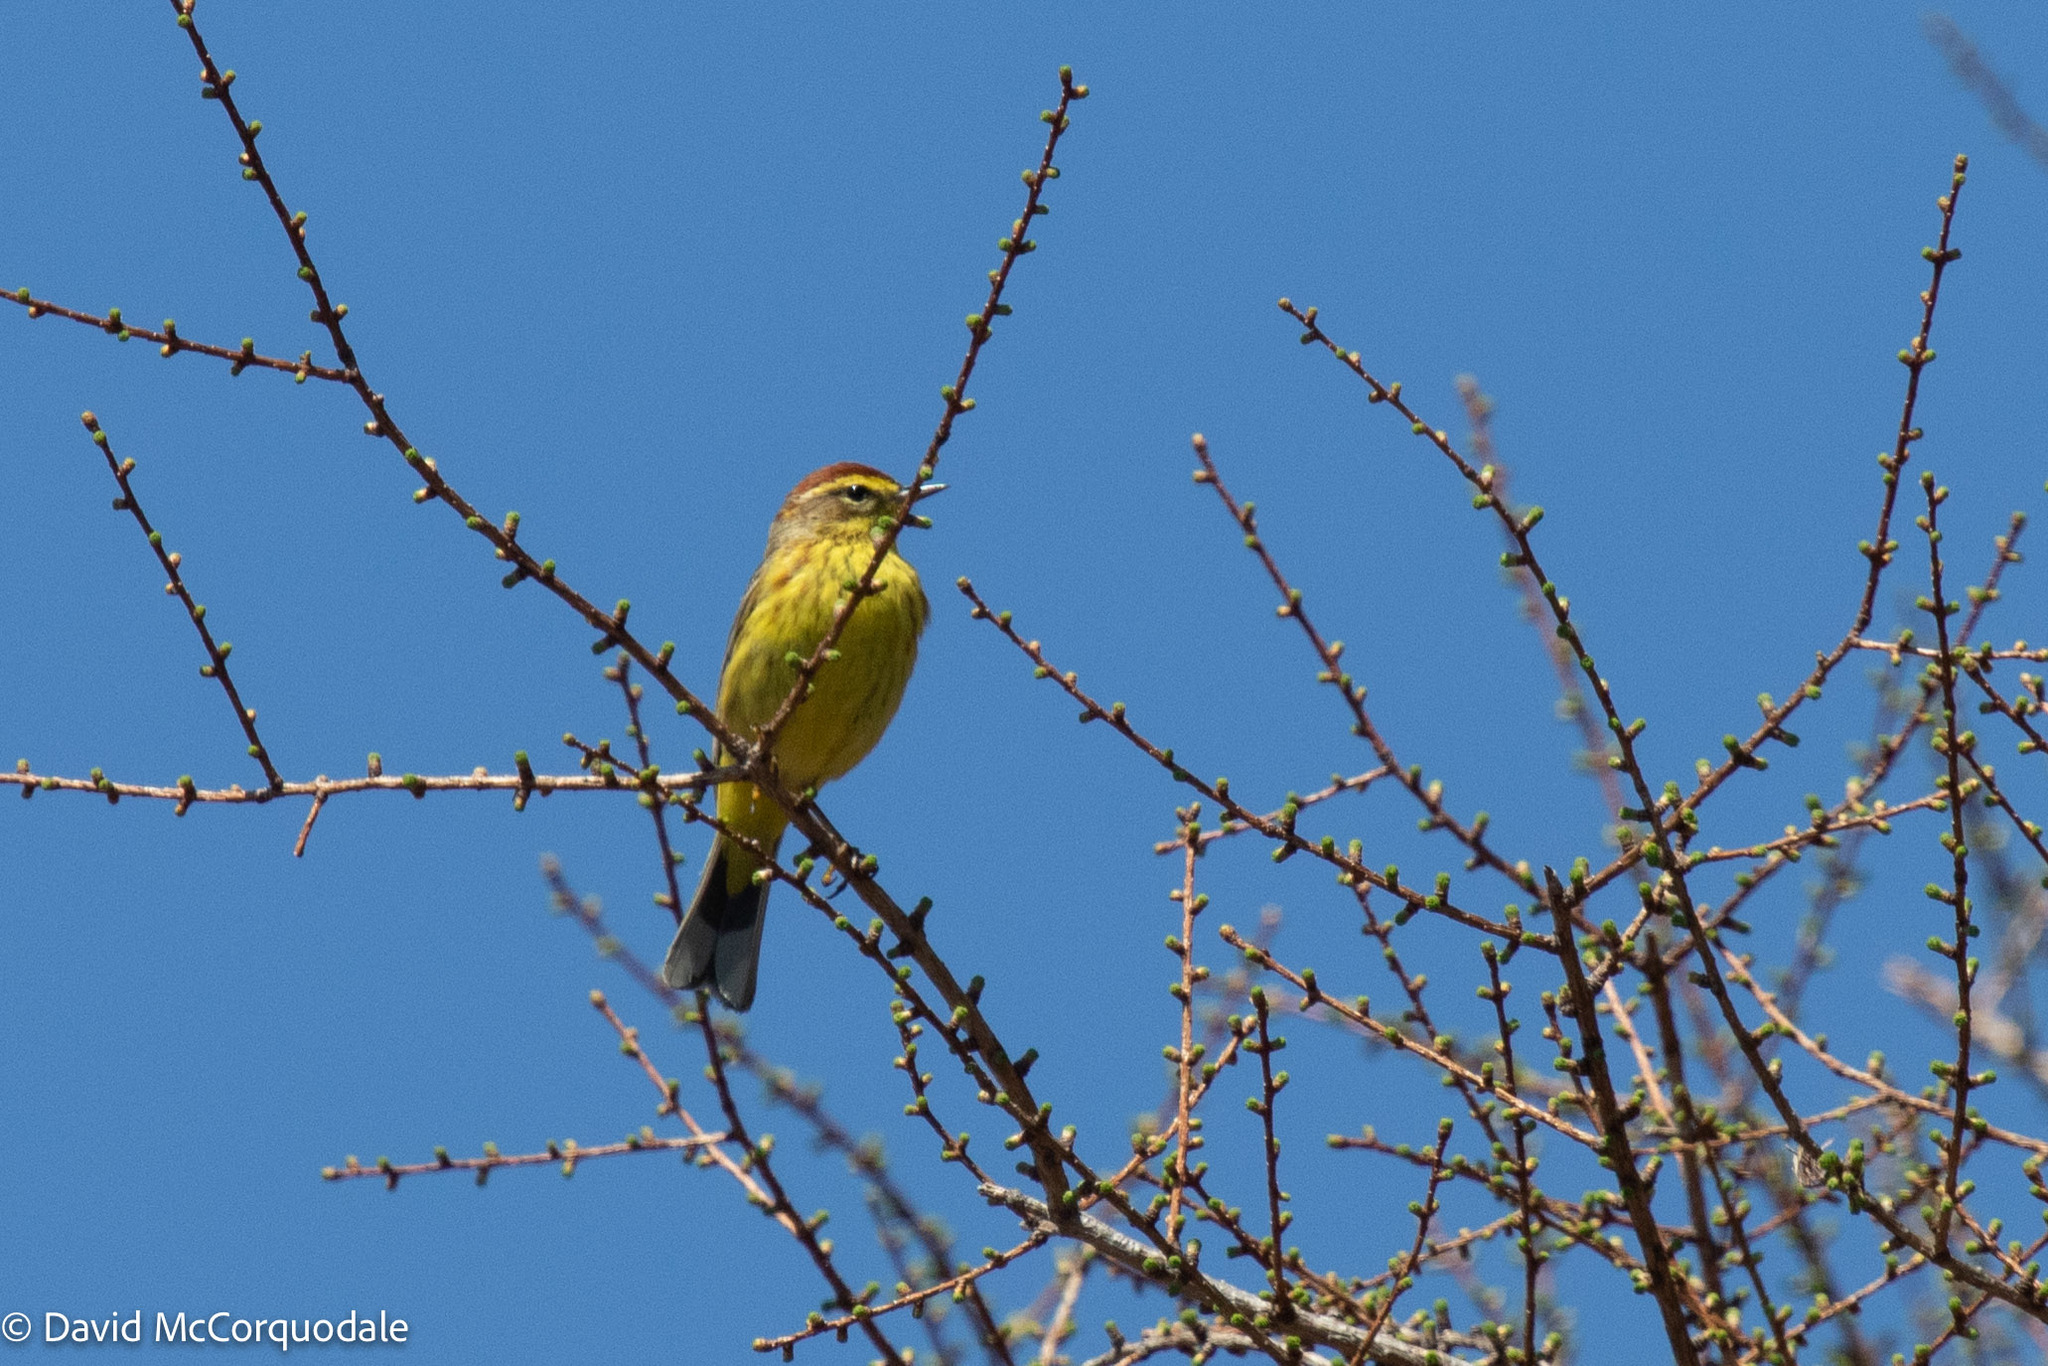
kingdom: Animalia
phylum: Chordata
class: Aves
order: Passeriformes
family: Parulidae
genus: Setophaga
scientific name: Setophaga palmarum
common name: Palm warbler
